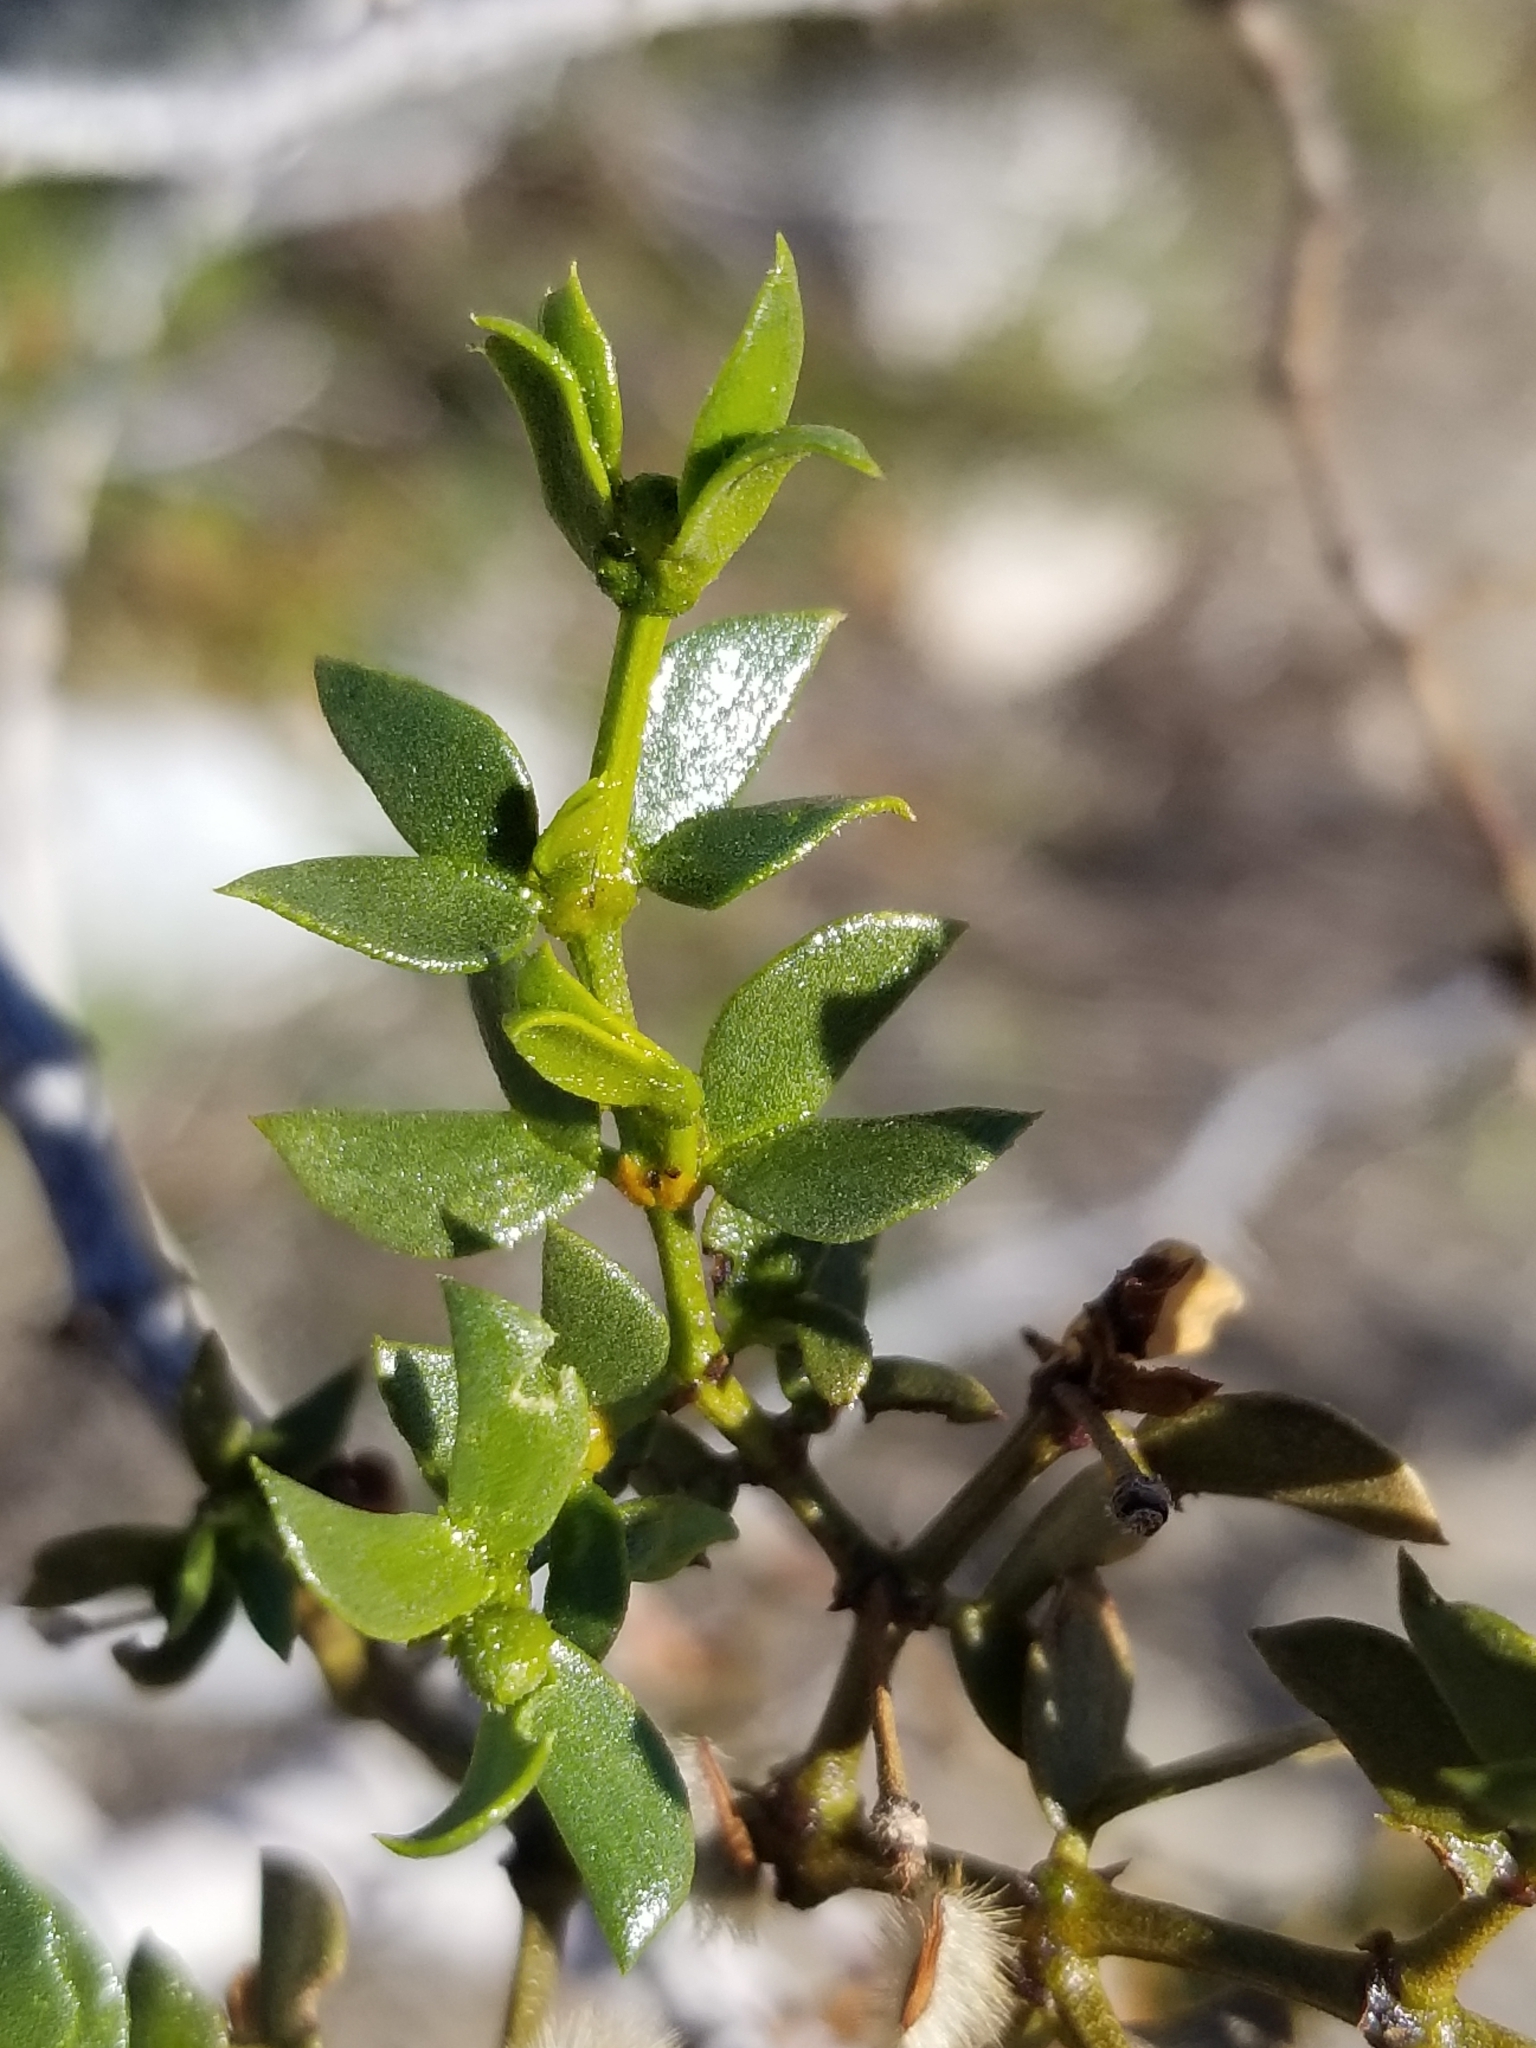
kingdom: Plantae
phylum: Tracheophyta
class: Magnoliopsida
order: Zygophyllales
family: Zygophyllaceae
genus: Larrea
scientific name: Larrea tridentata
